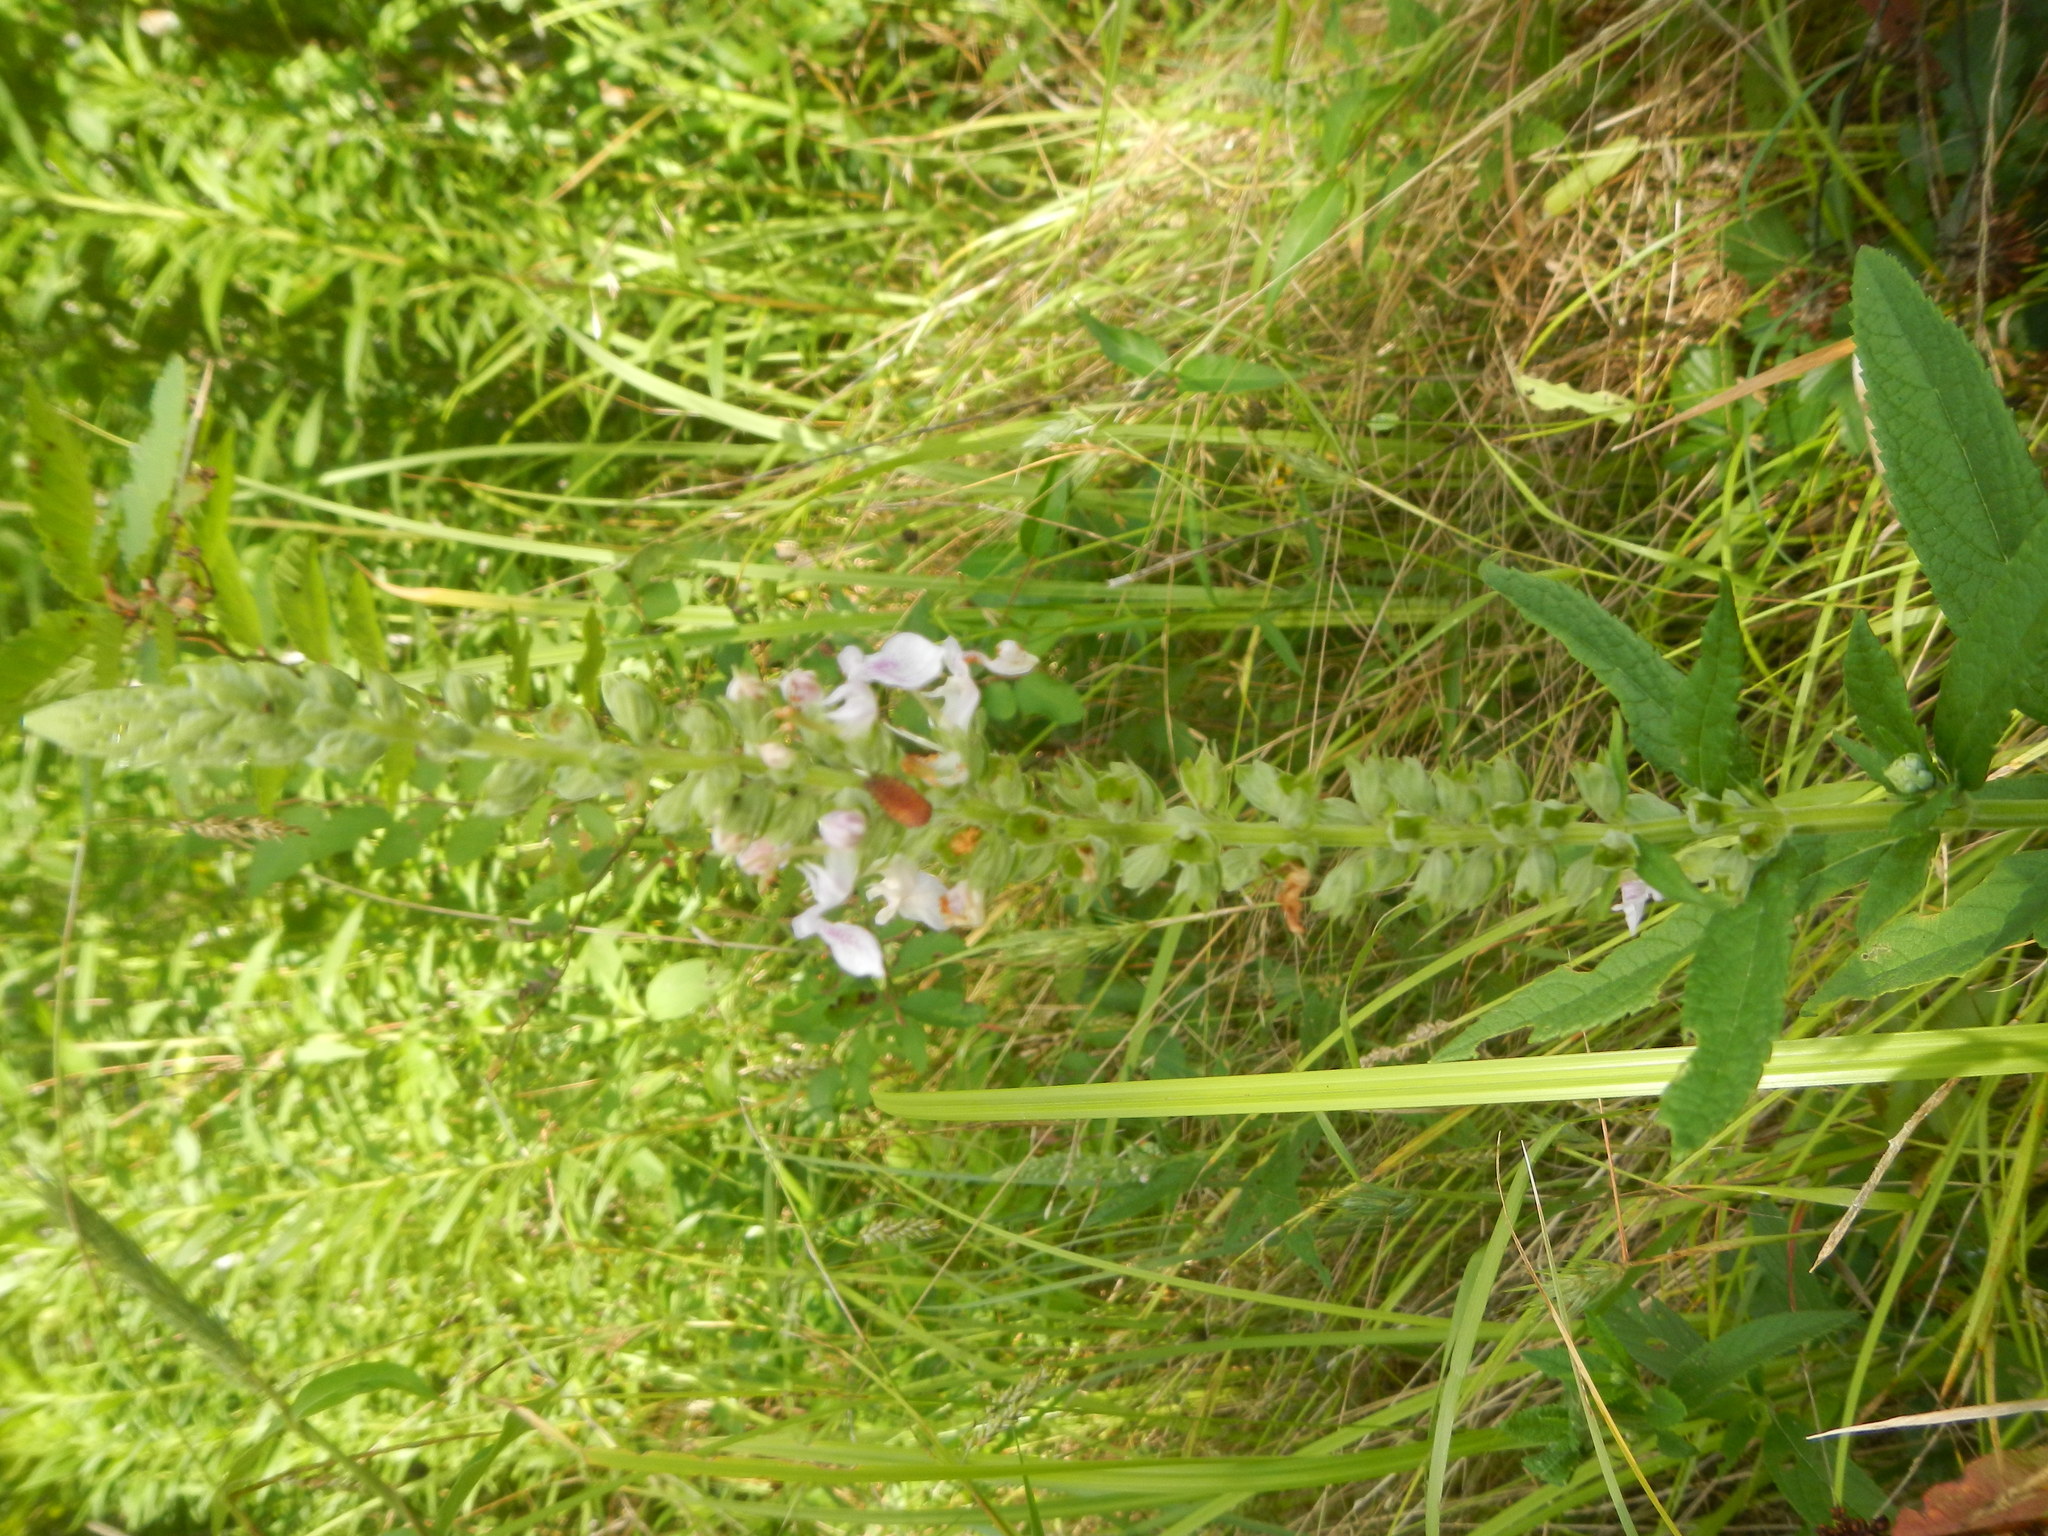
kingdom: Plantae
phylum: Tracheophyta
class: Magnoliopsida
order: Lamiales
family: Lamiaceae
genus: Teucrium
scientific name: Teucrium canadense
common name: American germander
